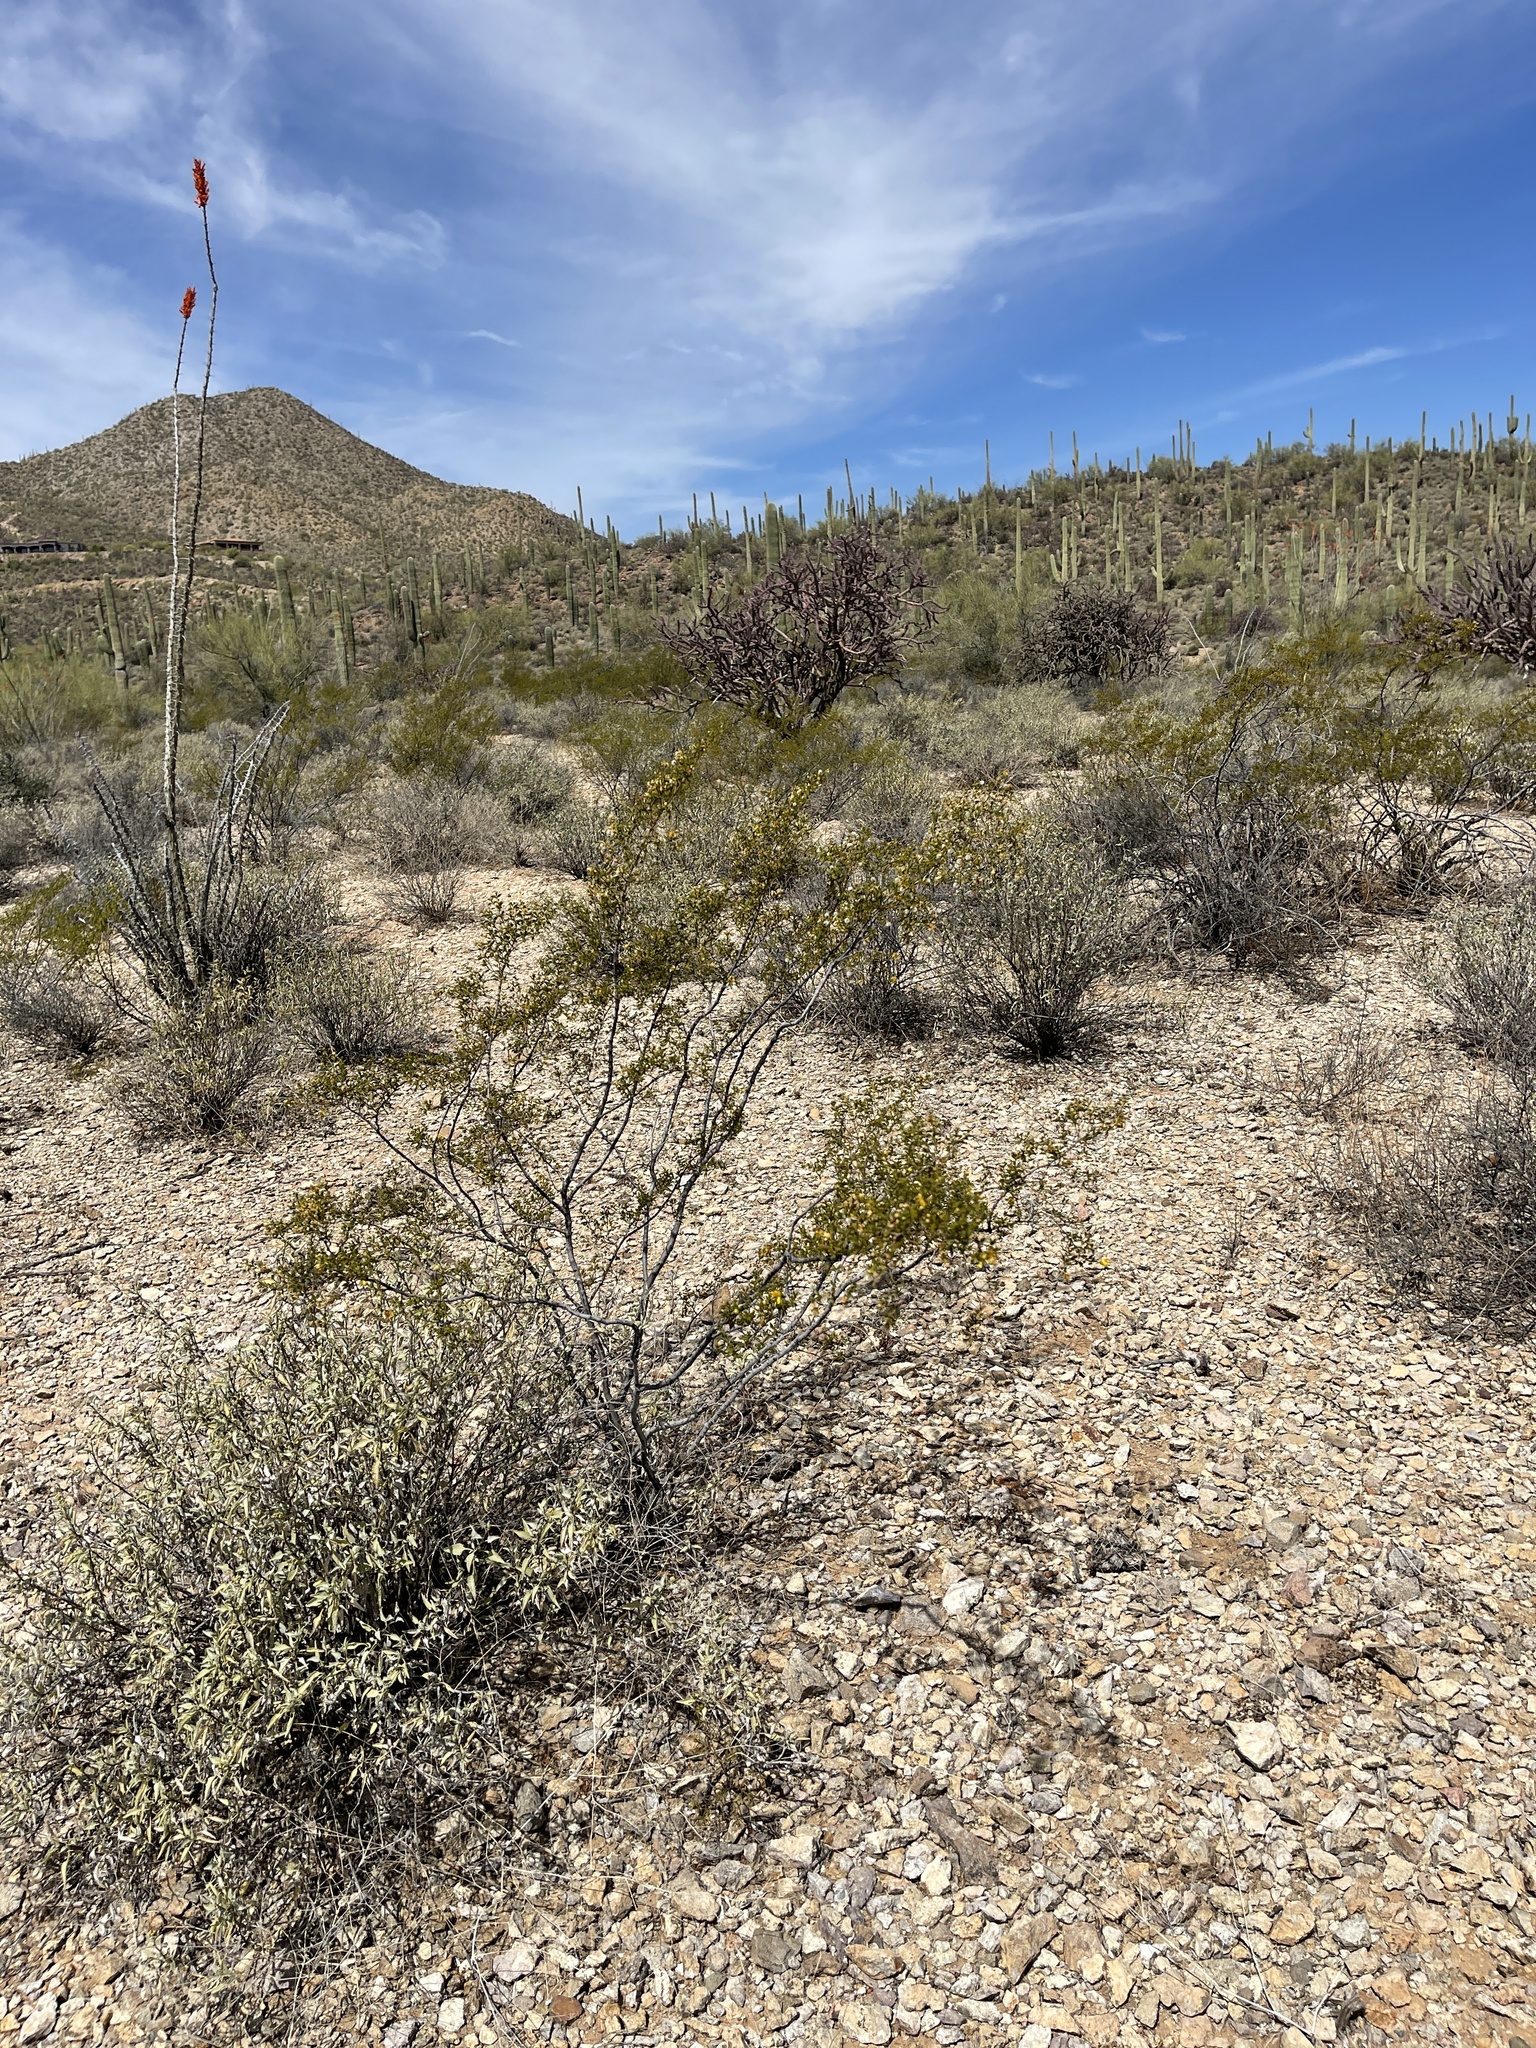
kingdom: Plantae
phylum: Tracheophyta
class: Magnoliopsida
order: Zygophyllales
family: Zygophyllaceae
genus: Larrea
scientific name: Larrea tridentata
